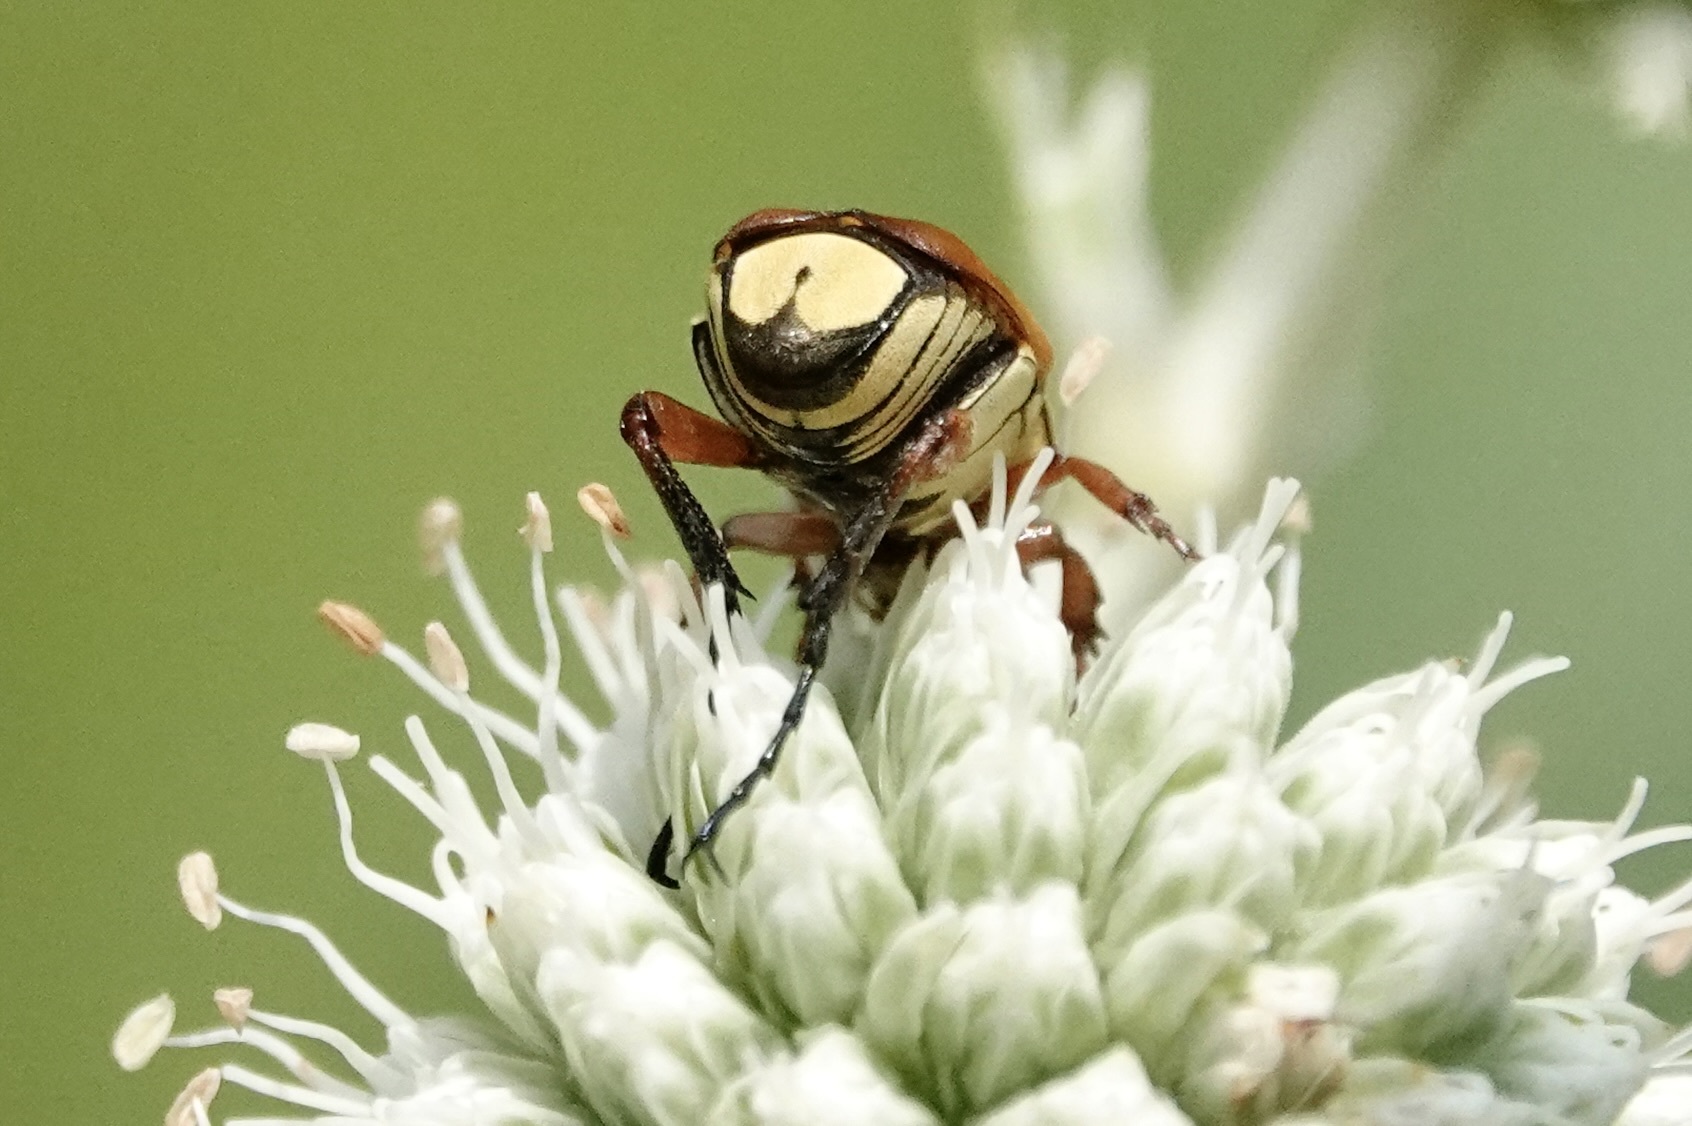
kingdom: Animalia
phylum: Arthropoda
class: Insecta
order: Coleoptera
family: Scarabaeidae
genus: Trigonopeltastes
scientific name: Trigonopeltastes delta
